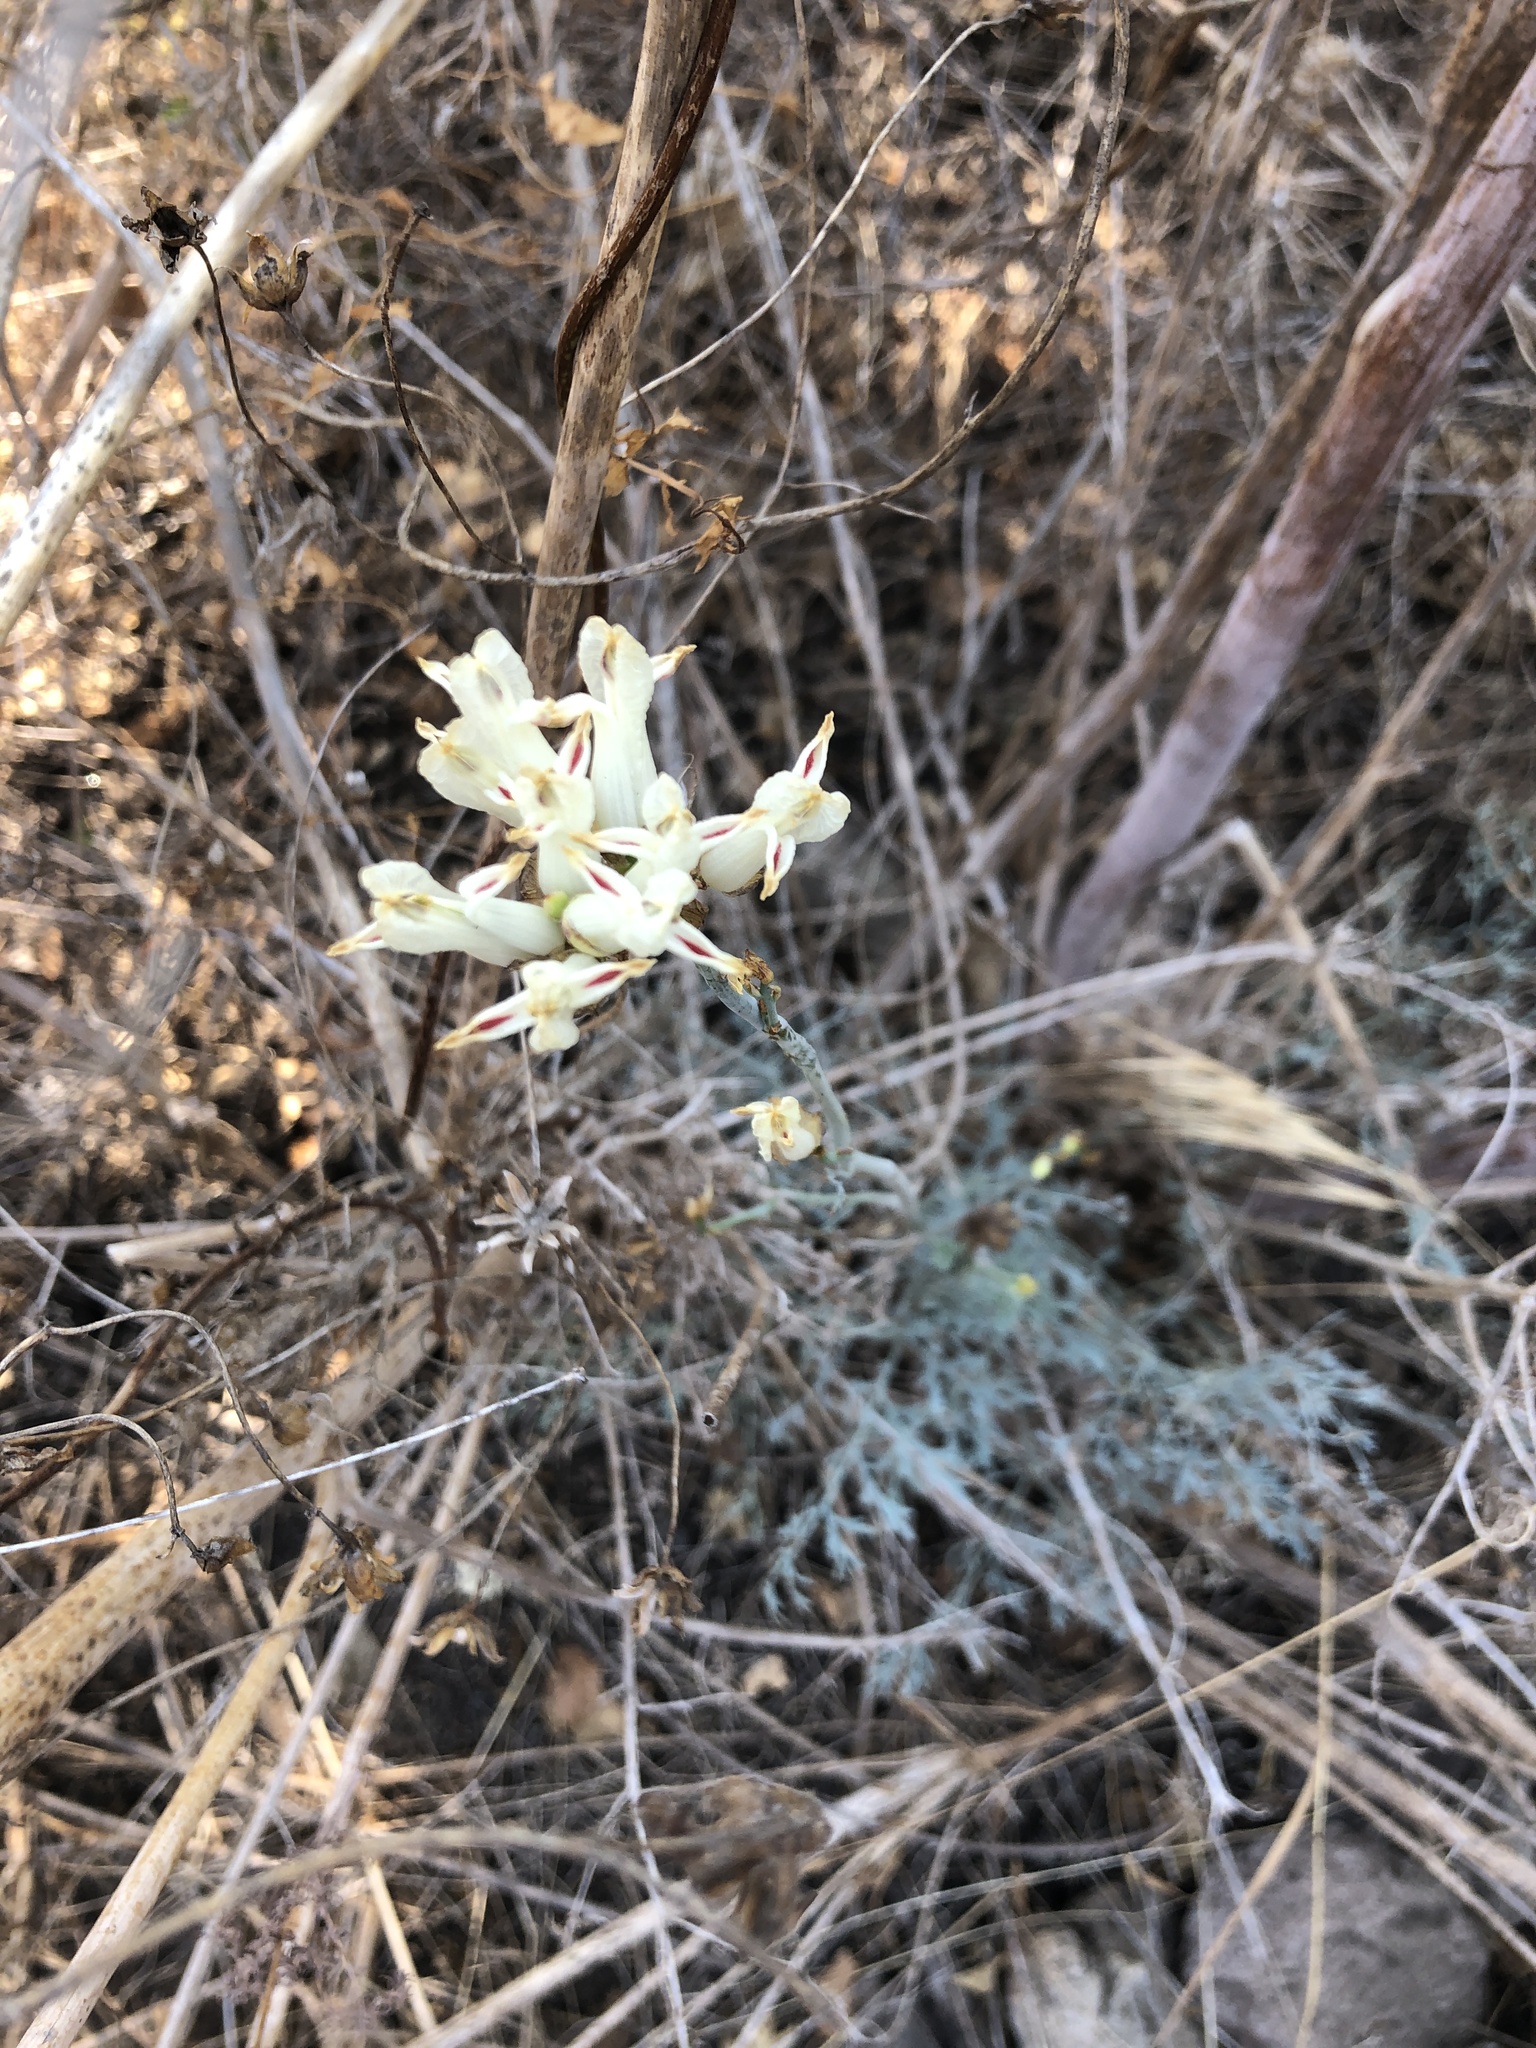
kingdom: Plantae
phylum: Tracheophyta
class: Magnoliopsida
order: Ranunculales
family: Papaveraceae
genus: Ehrendorferia
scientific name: Ehrendorferia ochroleuca
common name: White eardrops
